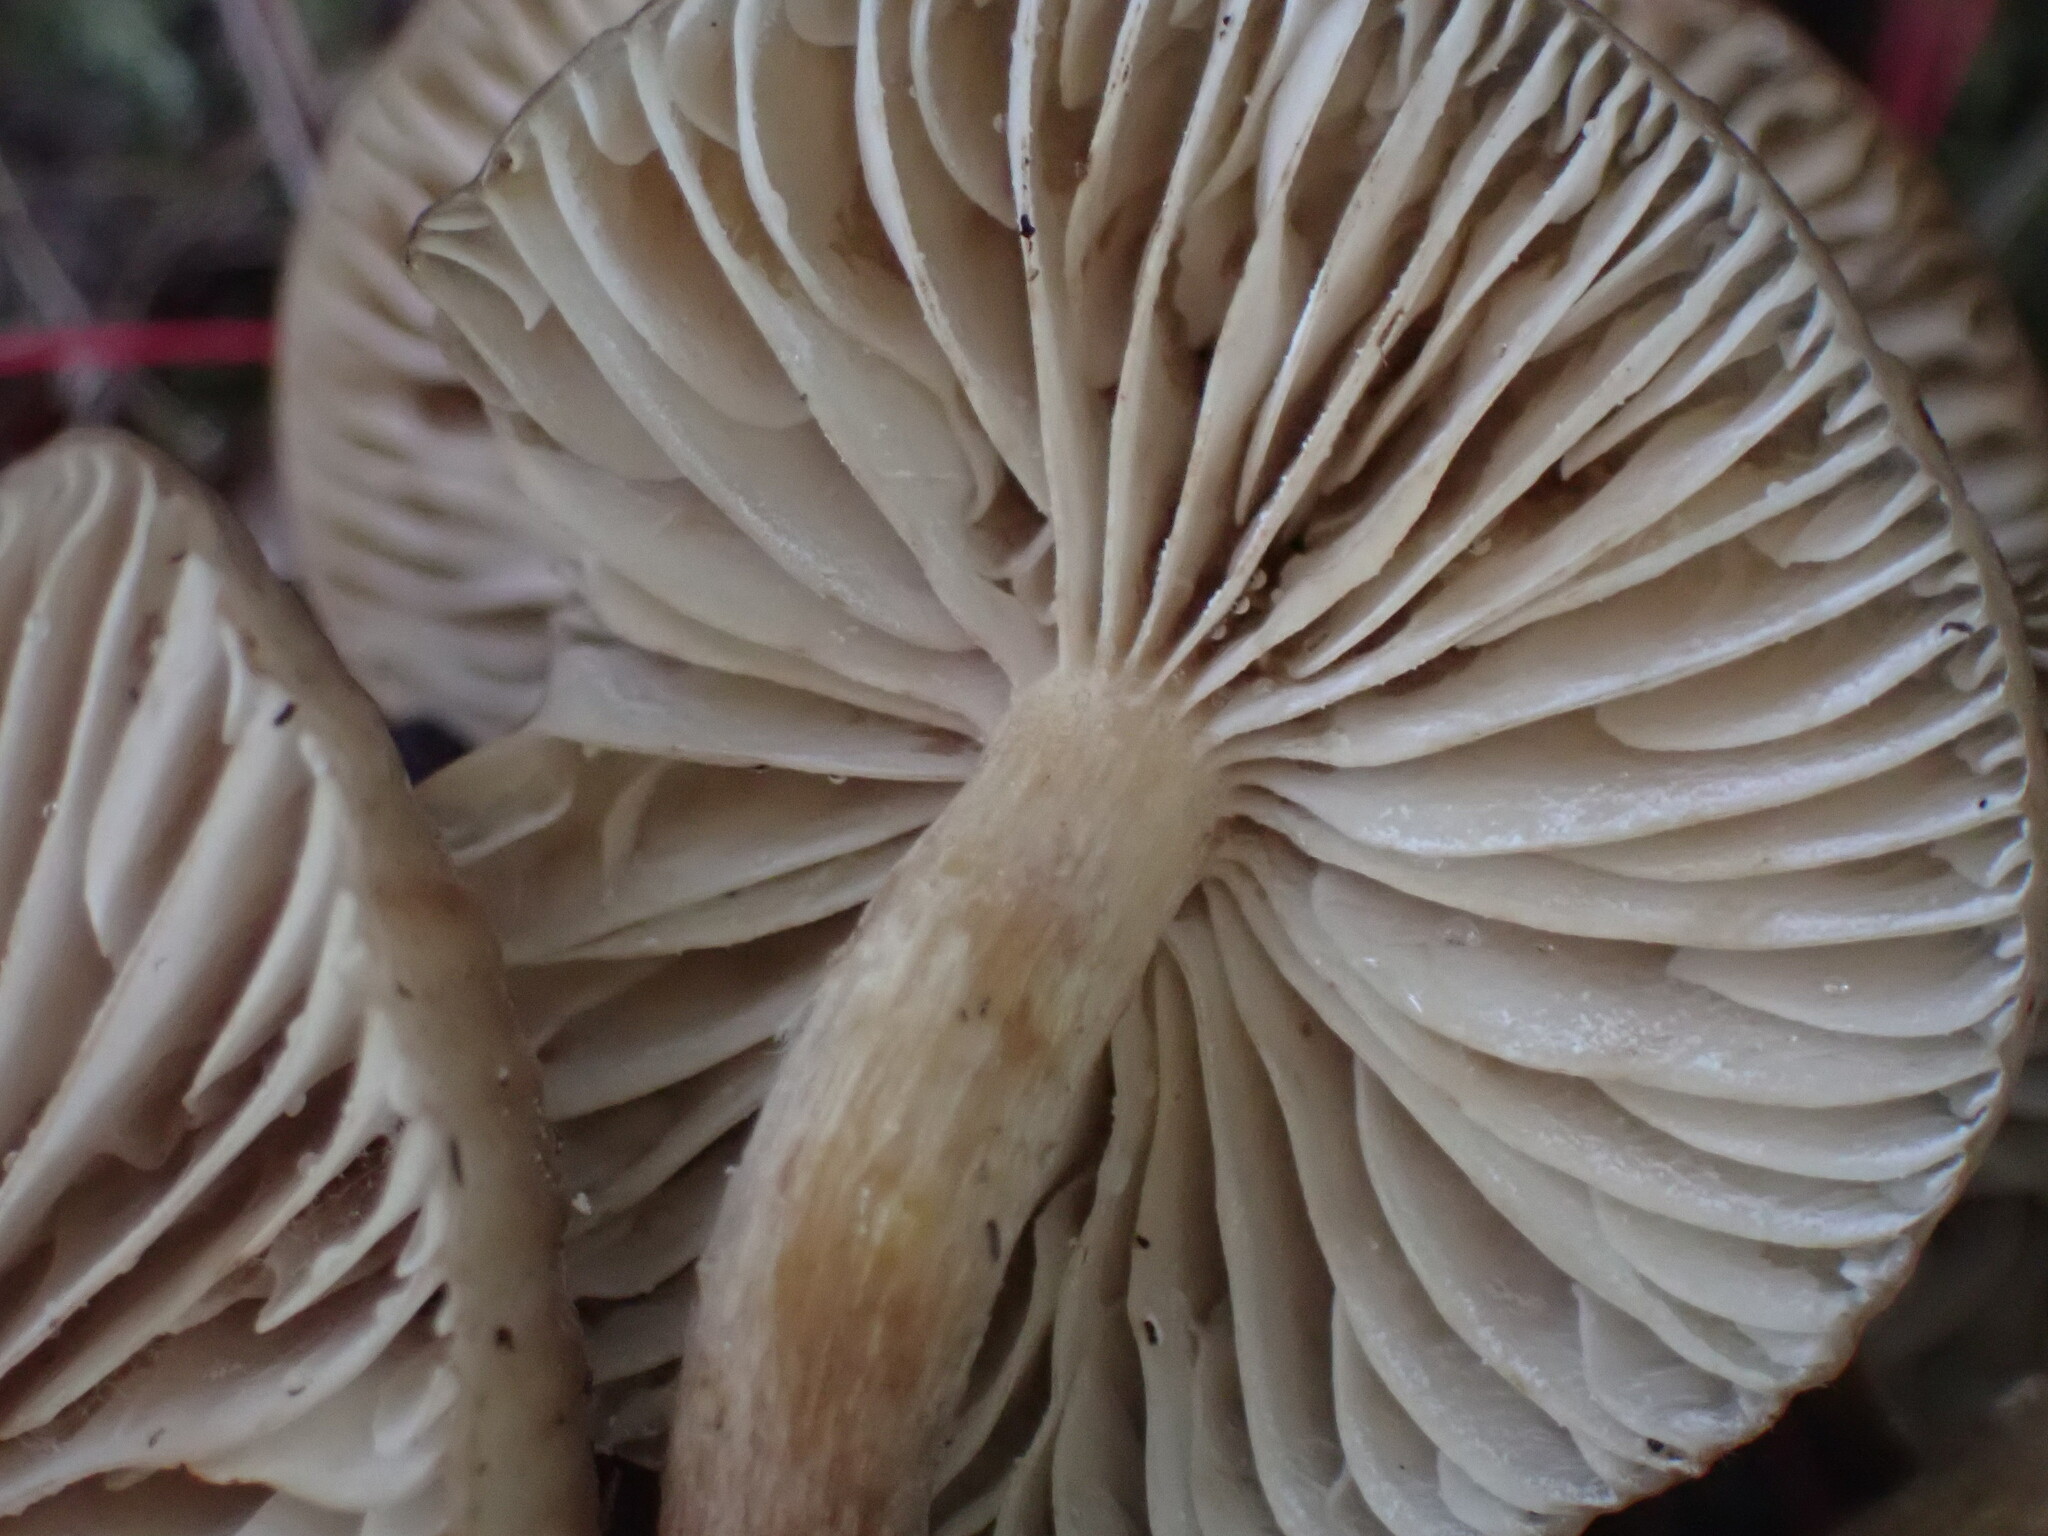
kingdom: Fungi
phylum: Basidiomycota
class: Agaricomycetes
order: Agaricales
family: Physalacriaceae
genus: Armillaria
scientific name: Armillaria novae-zelandiae
